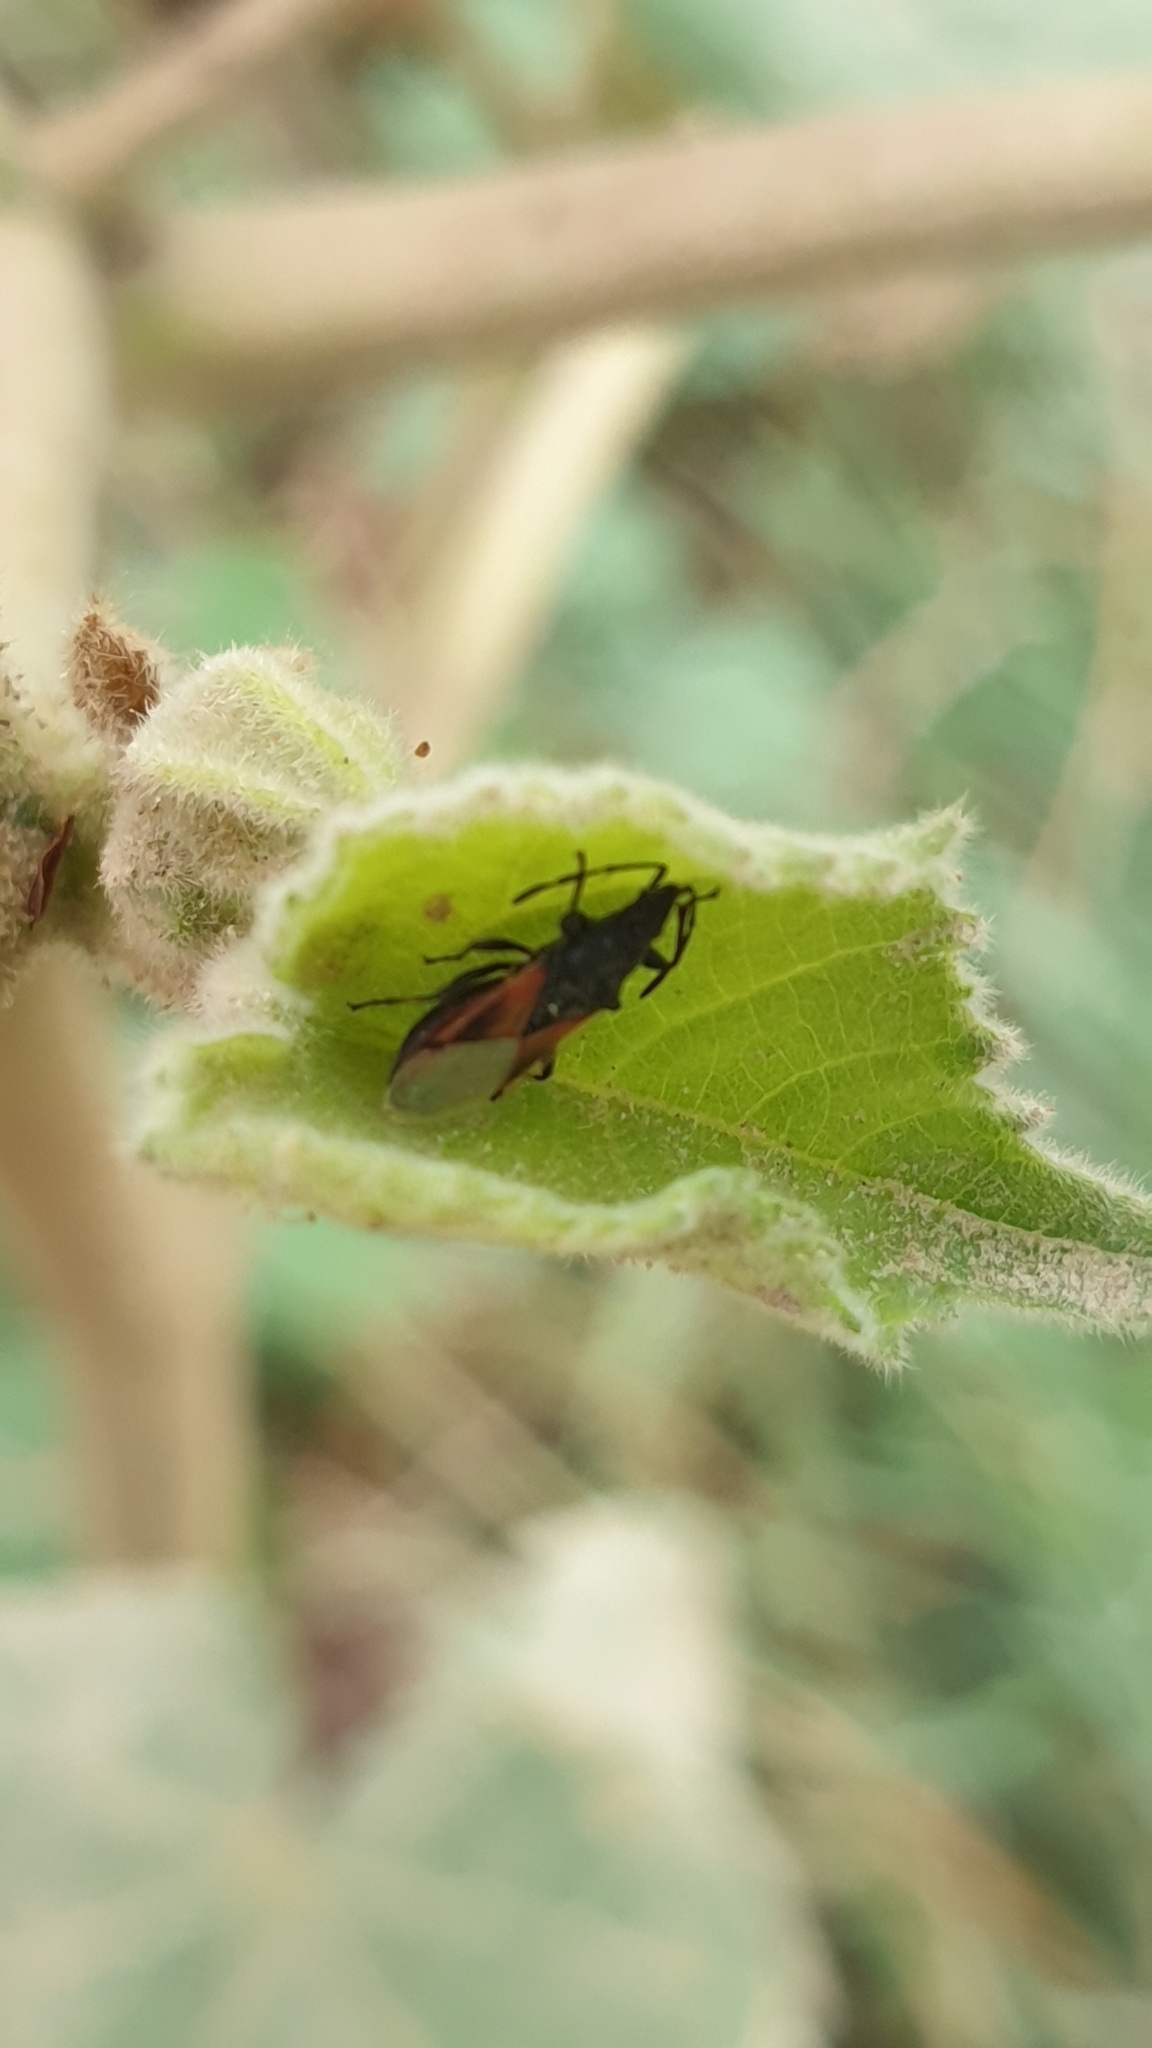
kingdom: Animalia
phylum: Arthropoda
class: Insecta
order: Hemiptera
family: Oxycarenidae
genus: Oxycarenus
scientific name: Oxycarenus lavaterae
